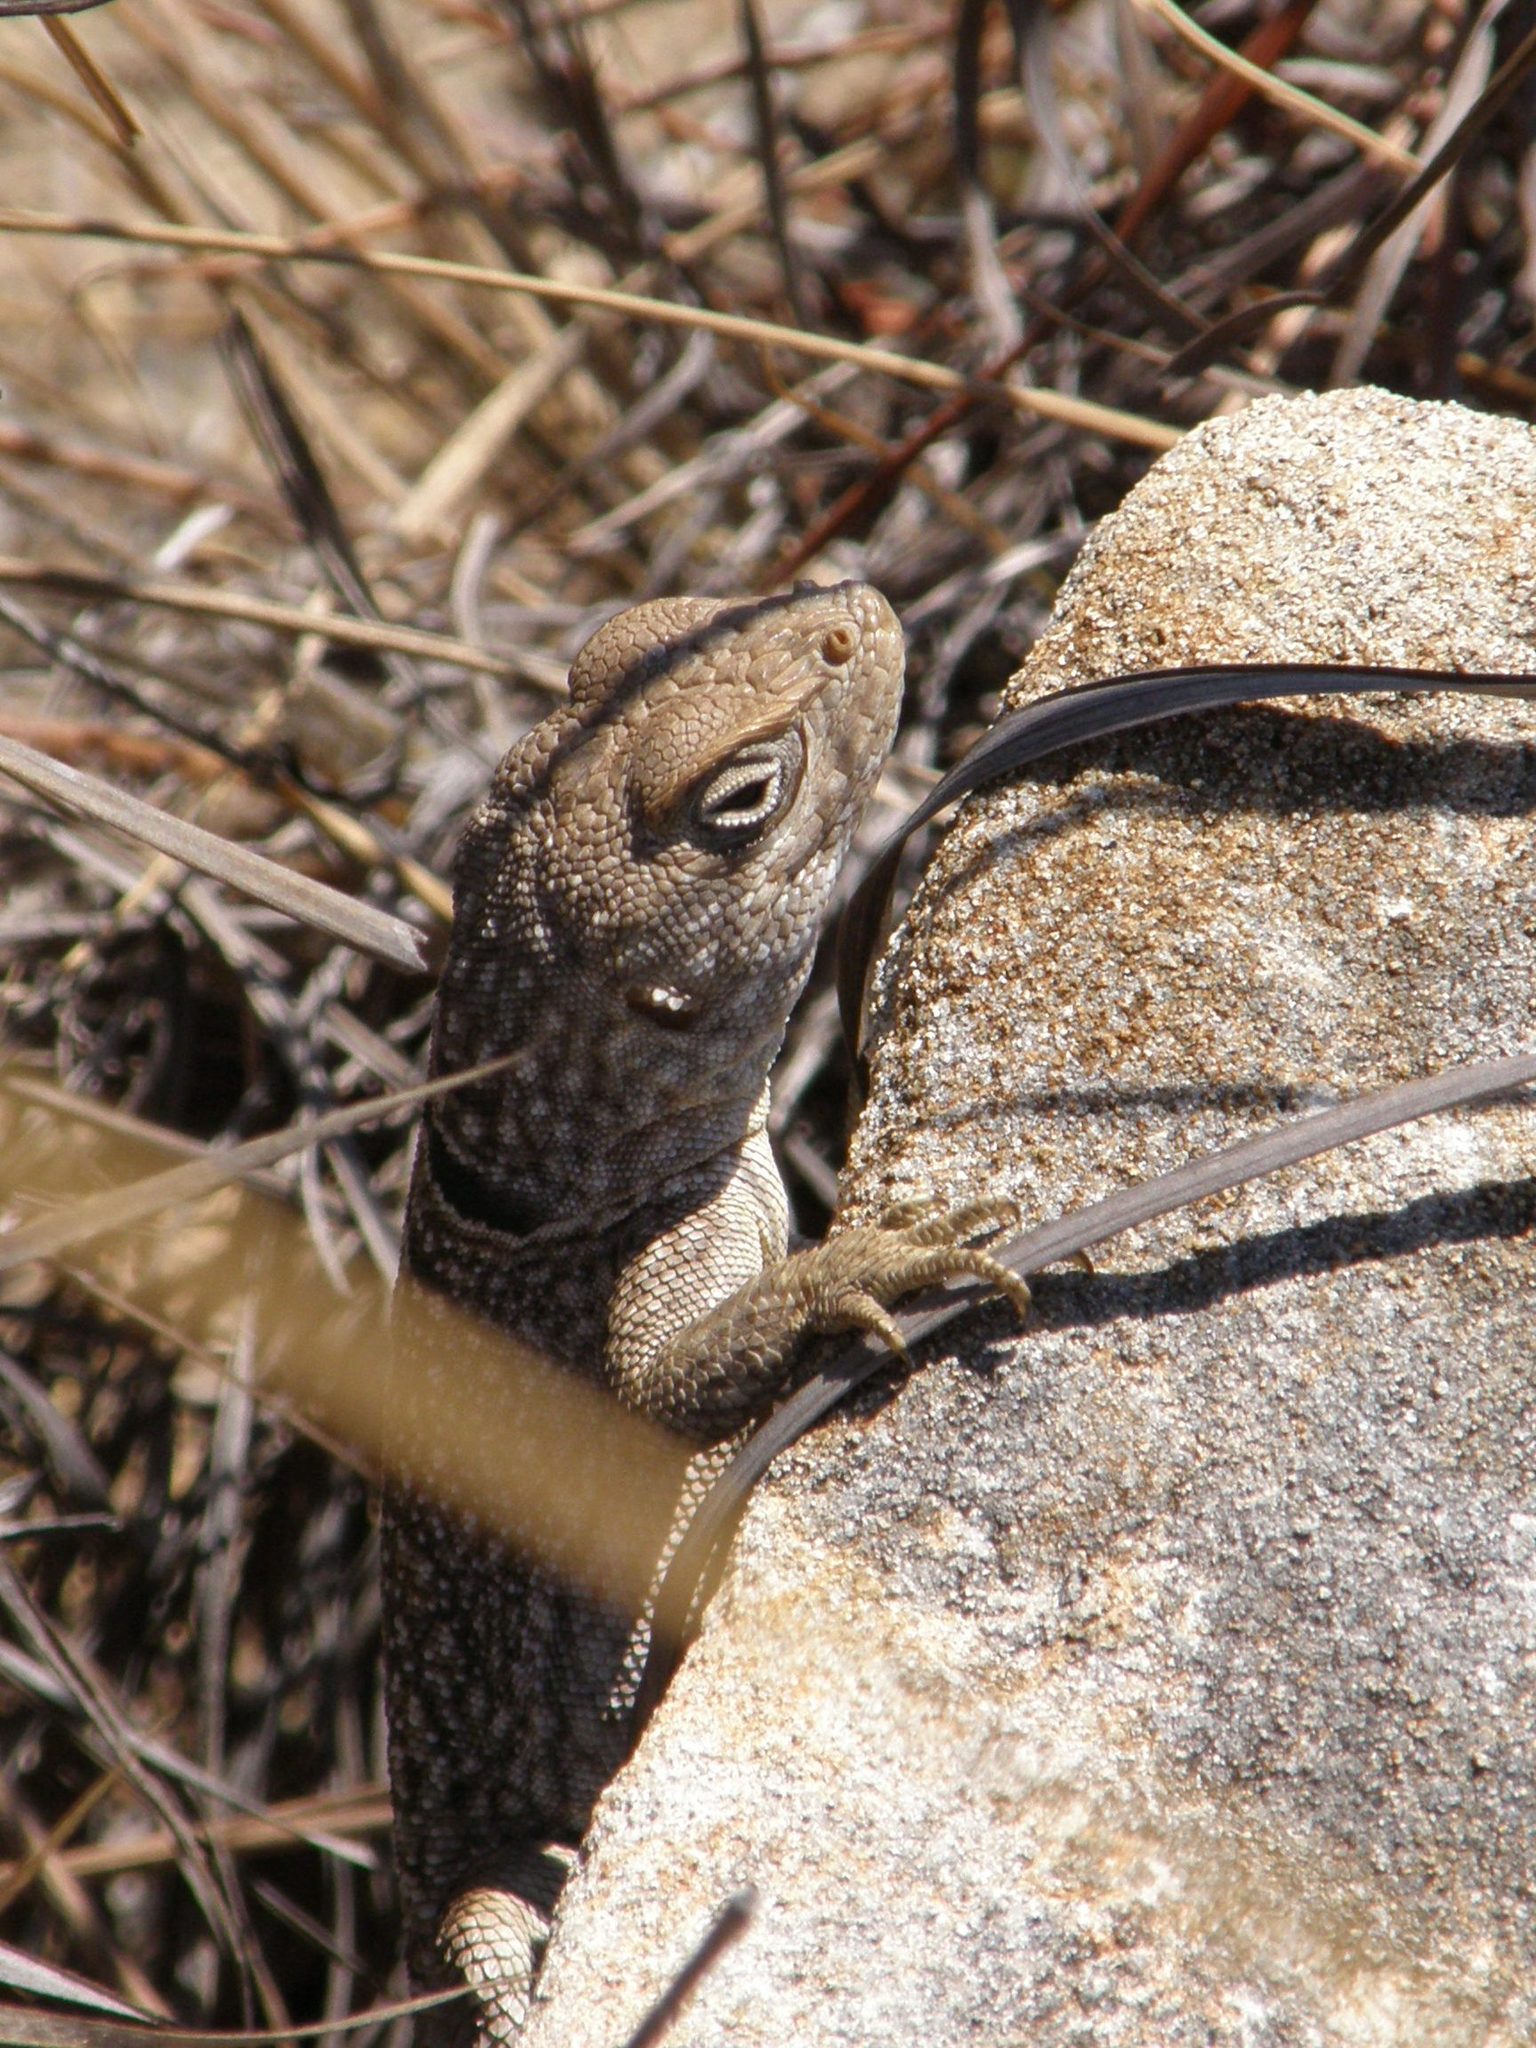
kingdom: Animalia
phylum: Chordata
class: Squamata
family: Opluridae
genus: Oplurus
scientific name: Oplurus cyclurus
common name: Merrem's madagascar swift
